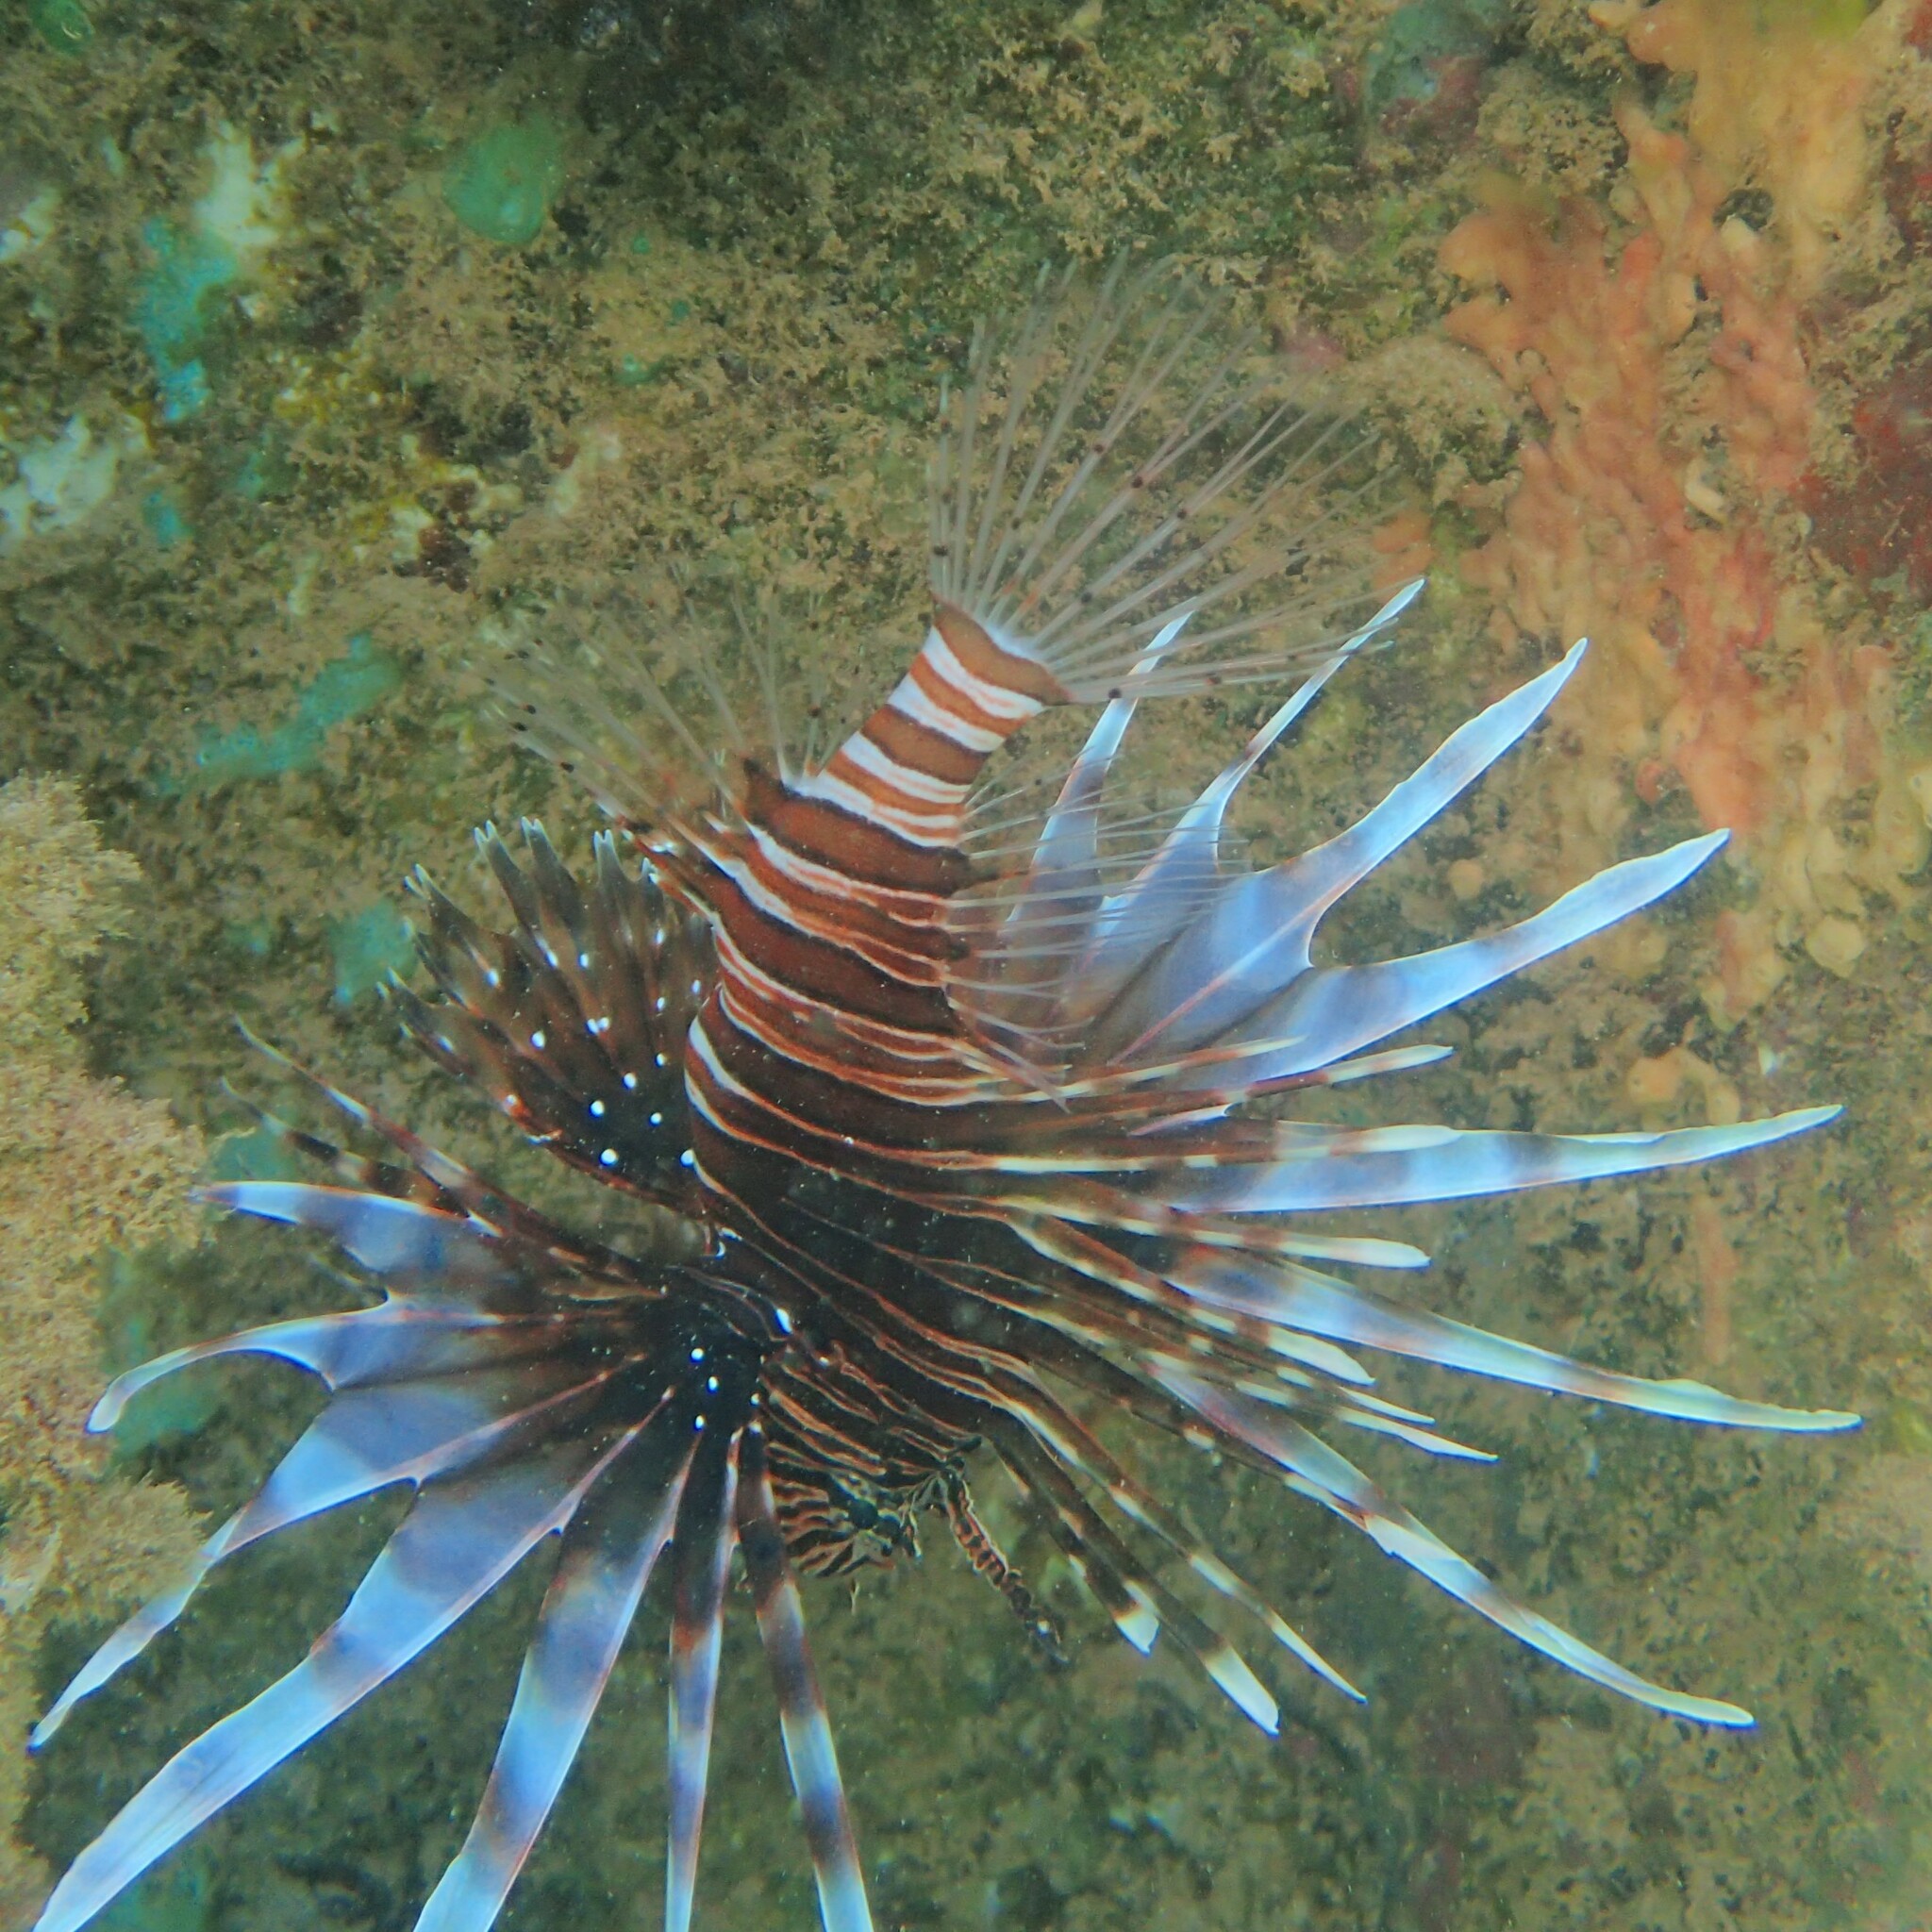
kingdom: Animalia
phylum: Chordata
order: Scorpaeniformes
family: Scorpaenidae
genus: Pterois
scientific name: Pterois volitans
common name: Lionfish
